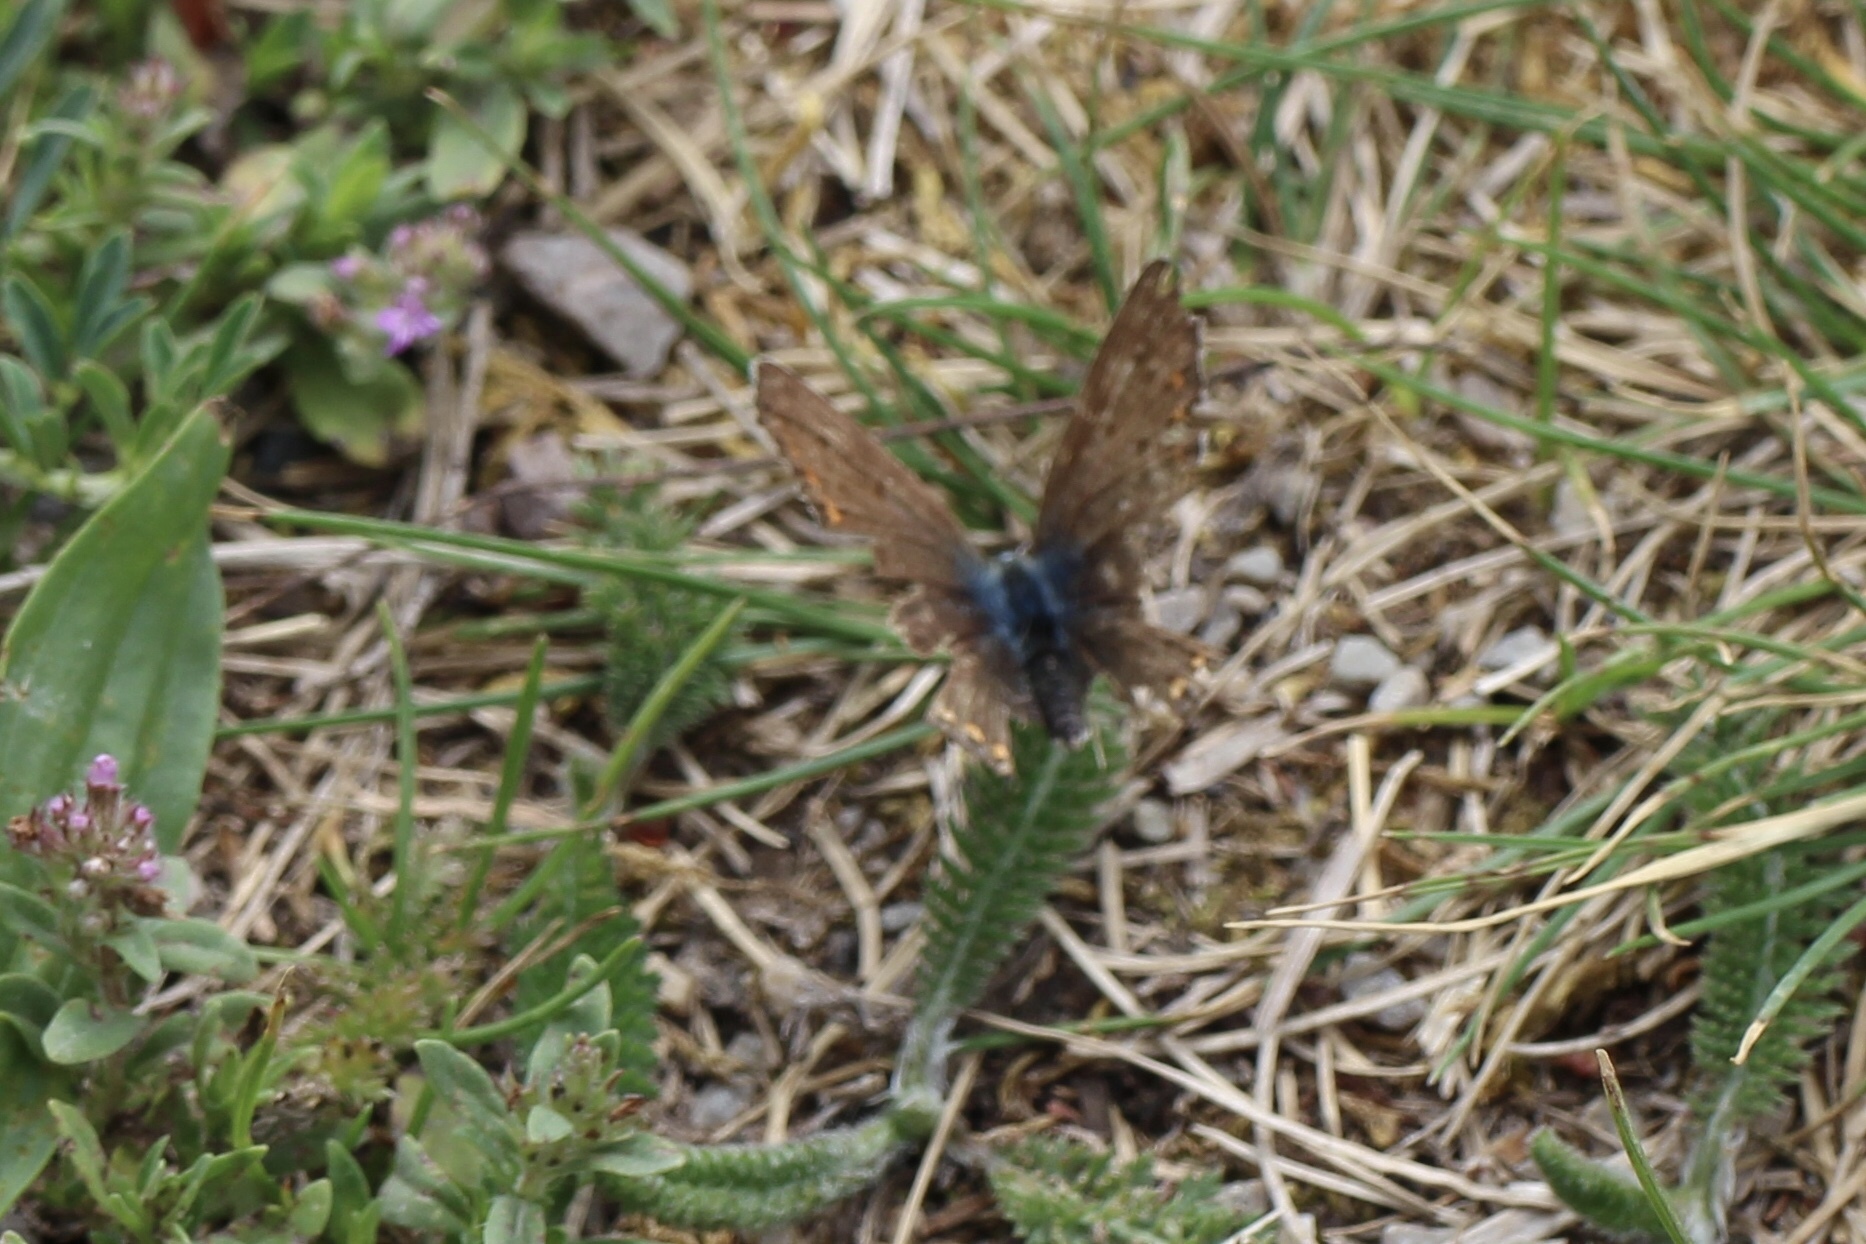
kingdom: Animalia
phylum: Arthropoda
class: Insecta
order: Lepidoptera
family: Lycaenidae
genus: Polyommatus
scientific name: Polyommatus icarus
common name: Common blue
